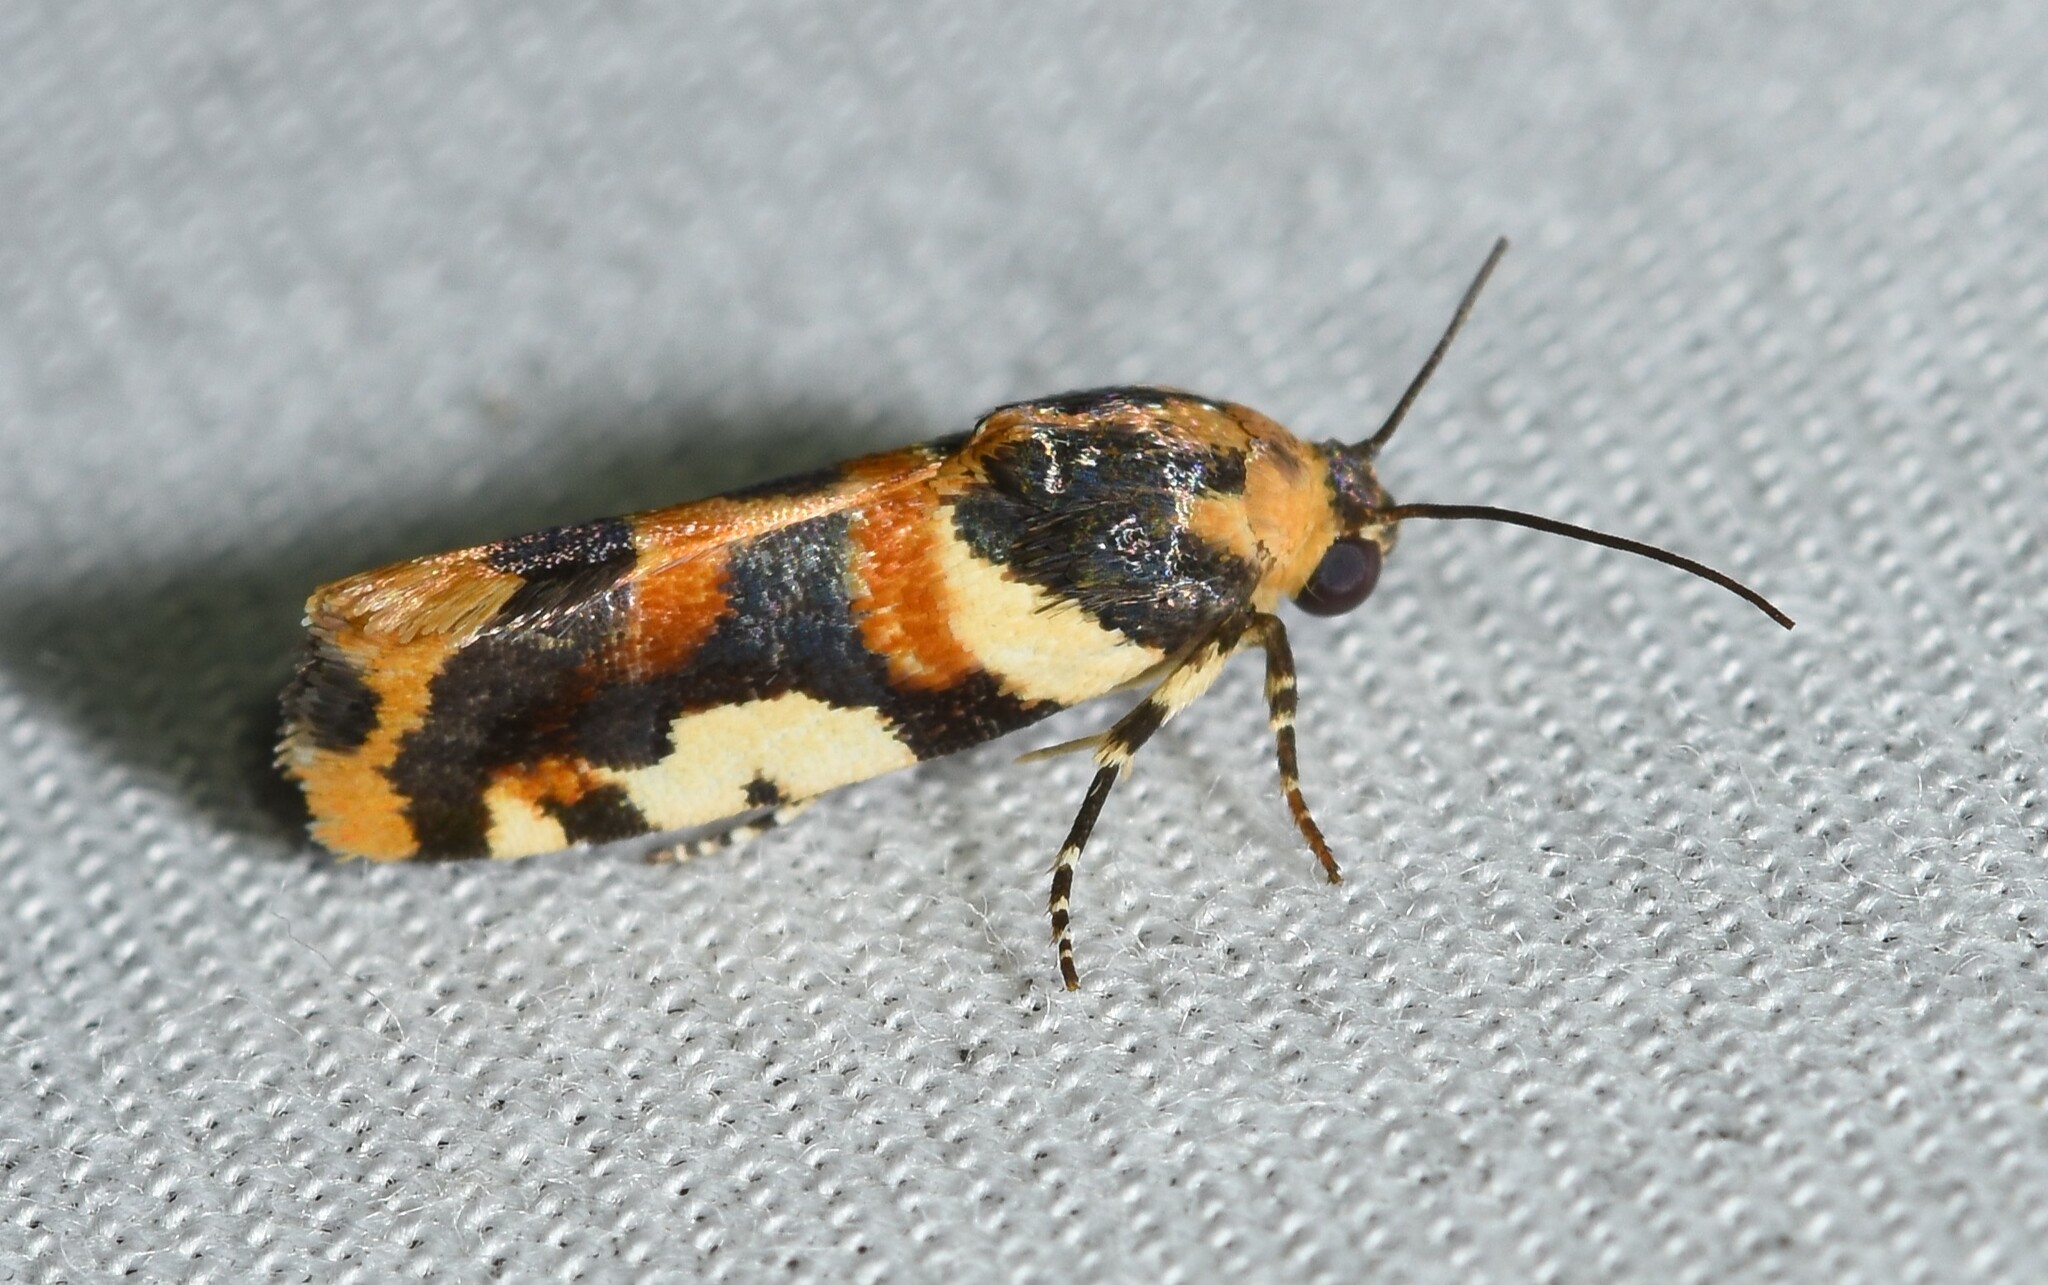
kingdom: Animalia
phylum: Arthropoda
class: Insecta
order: Lepidoptera
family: Noctuidae
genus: Acontia
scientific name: Acontia dama
